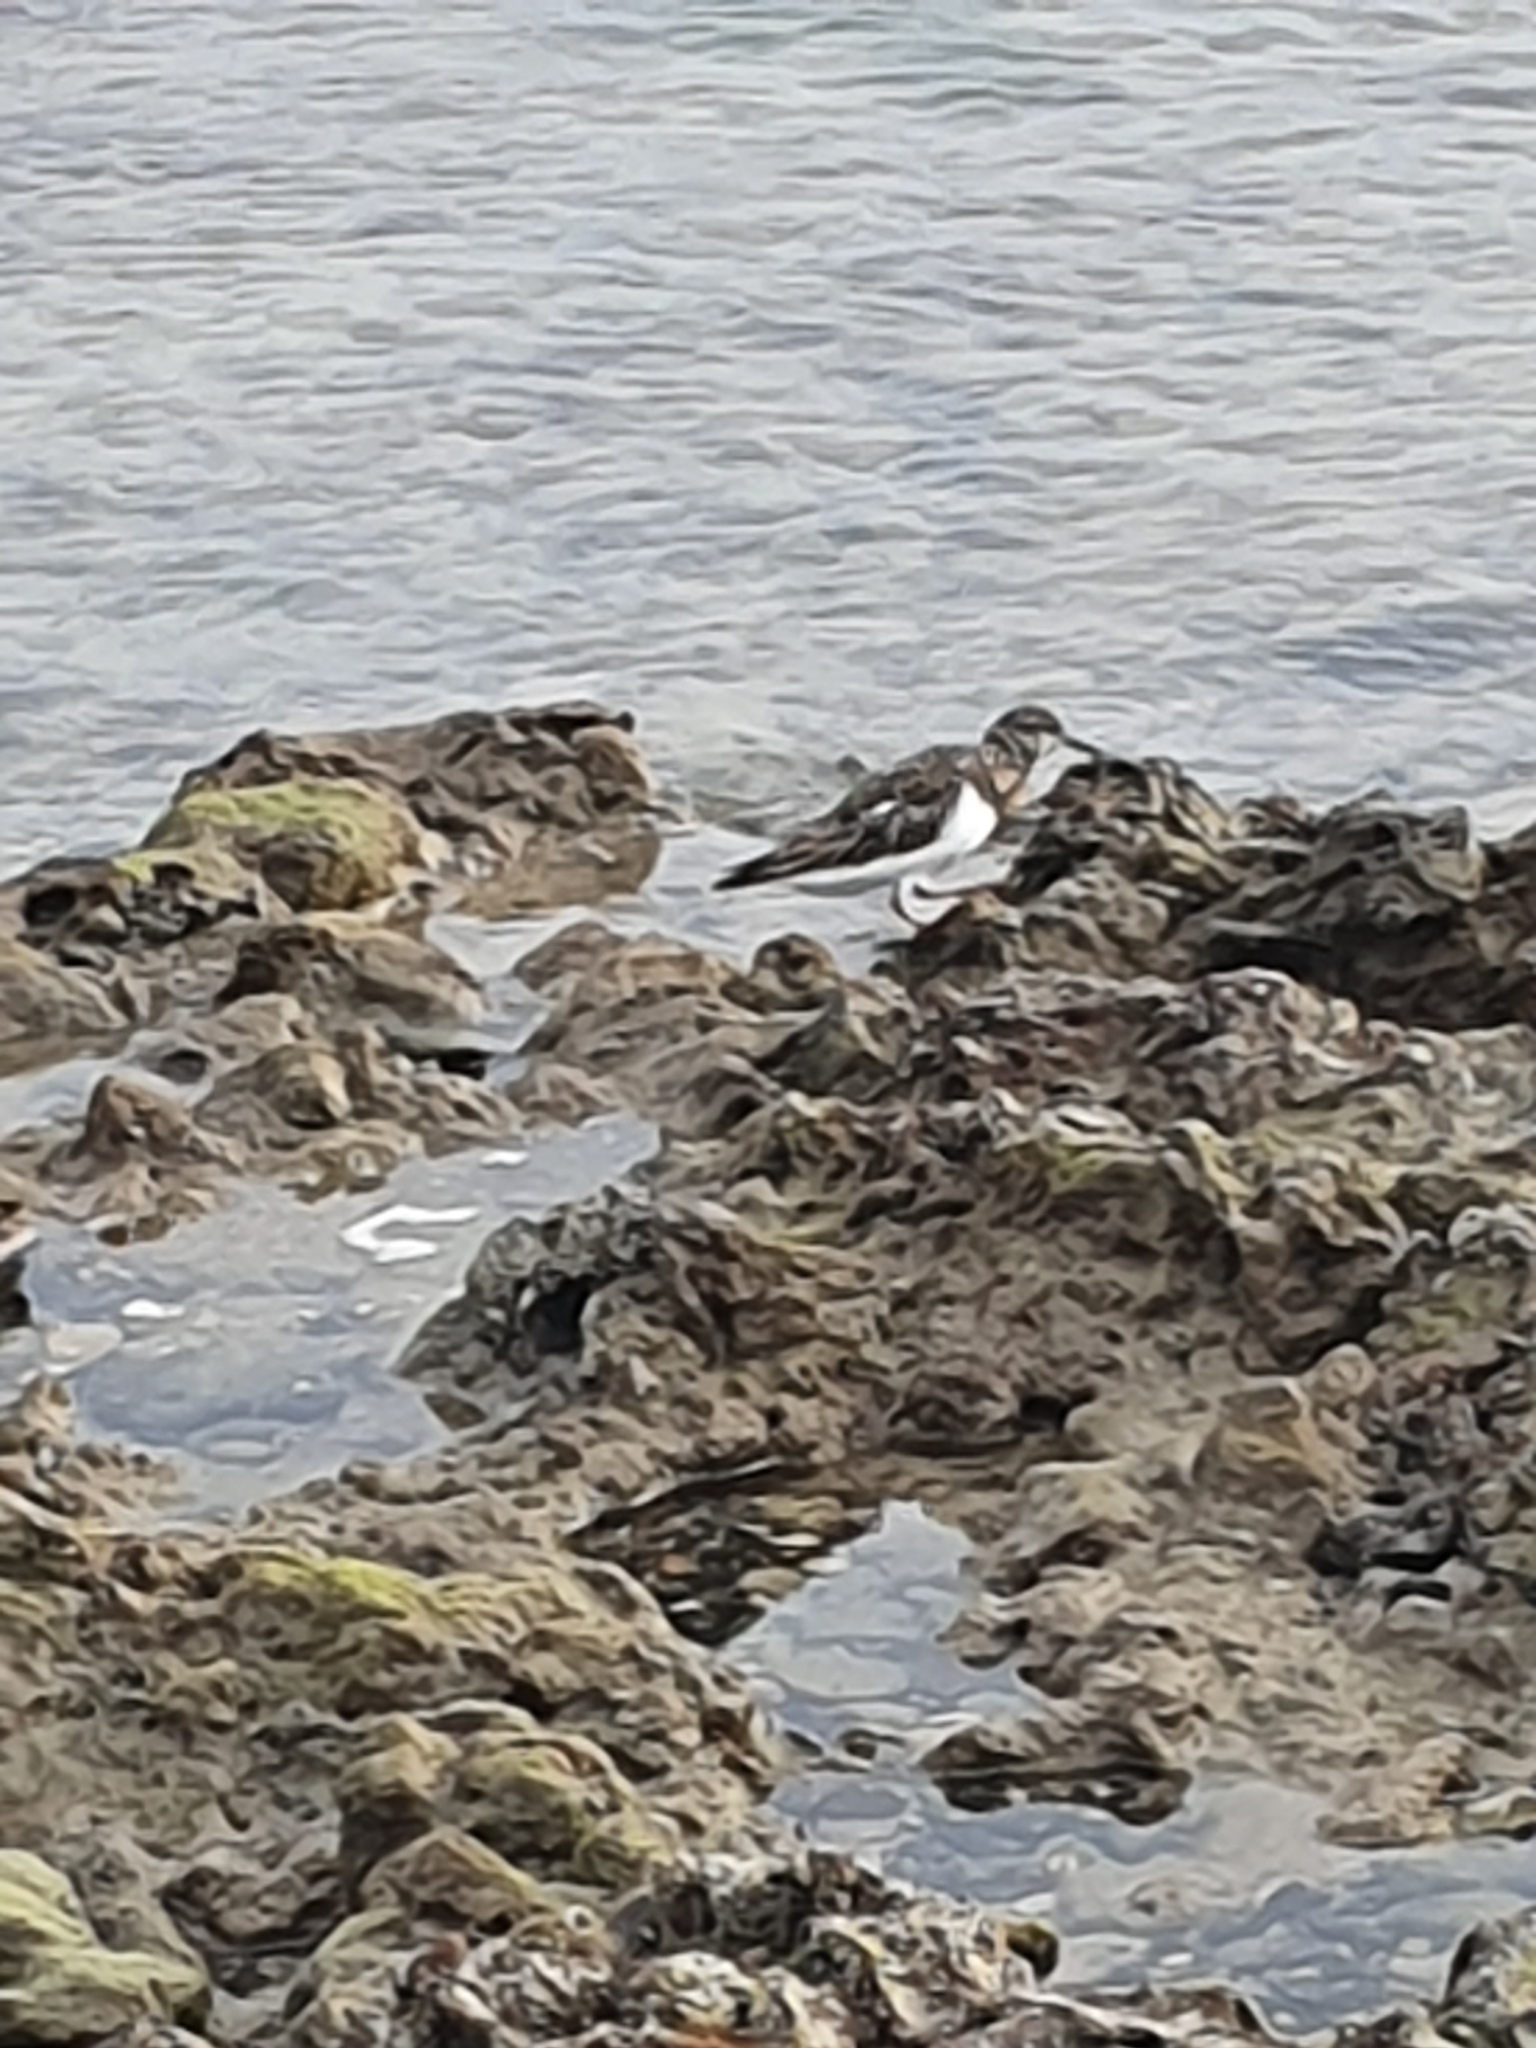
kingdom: Animalia
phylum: Chordata
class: Aves
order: Charadriiformes
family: Scolopacidae
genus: Arenaria
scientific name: Arenaria interpres
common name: Ruddy turnstone
